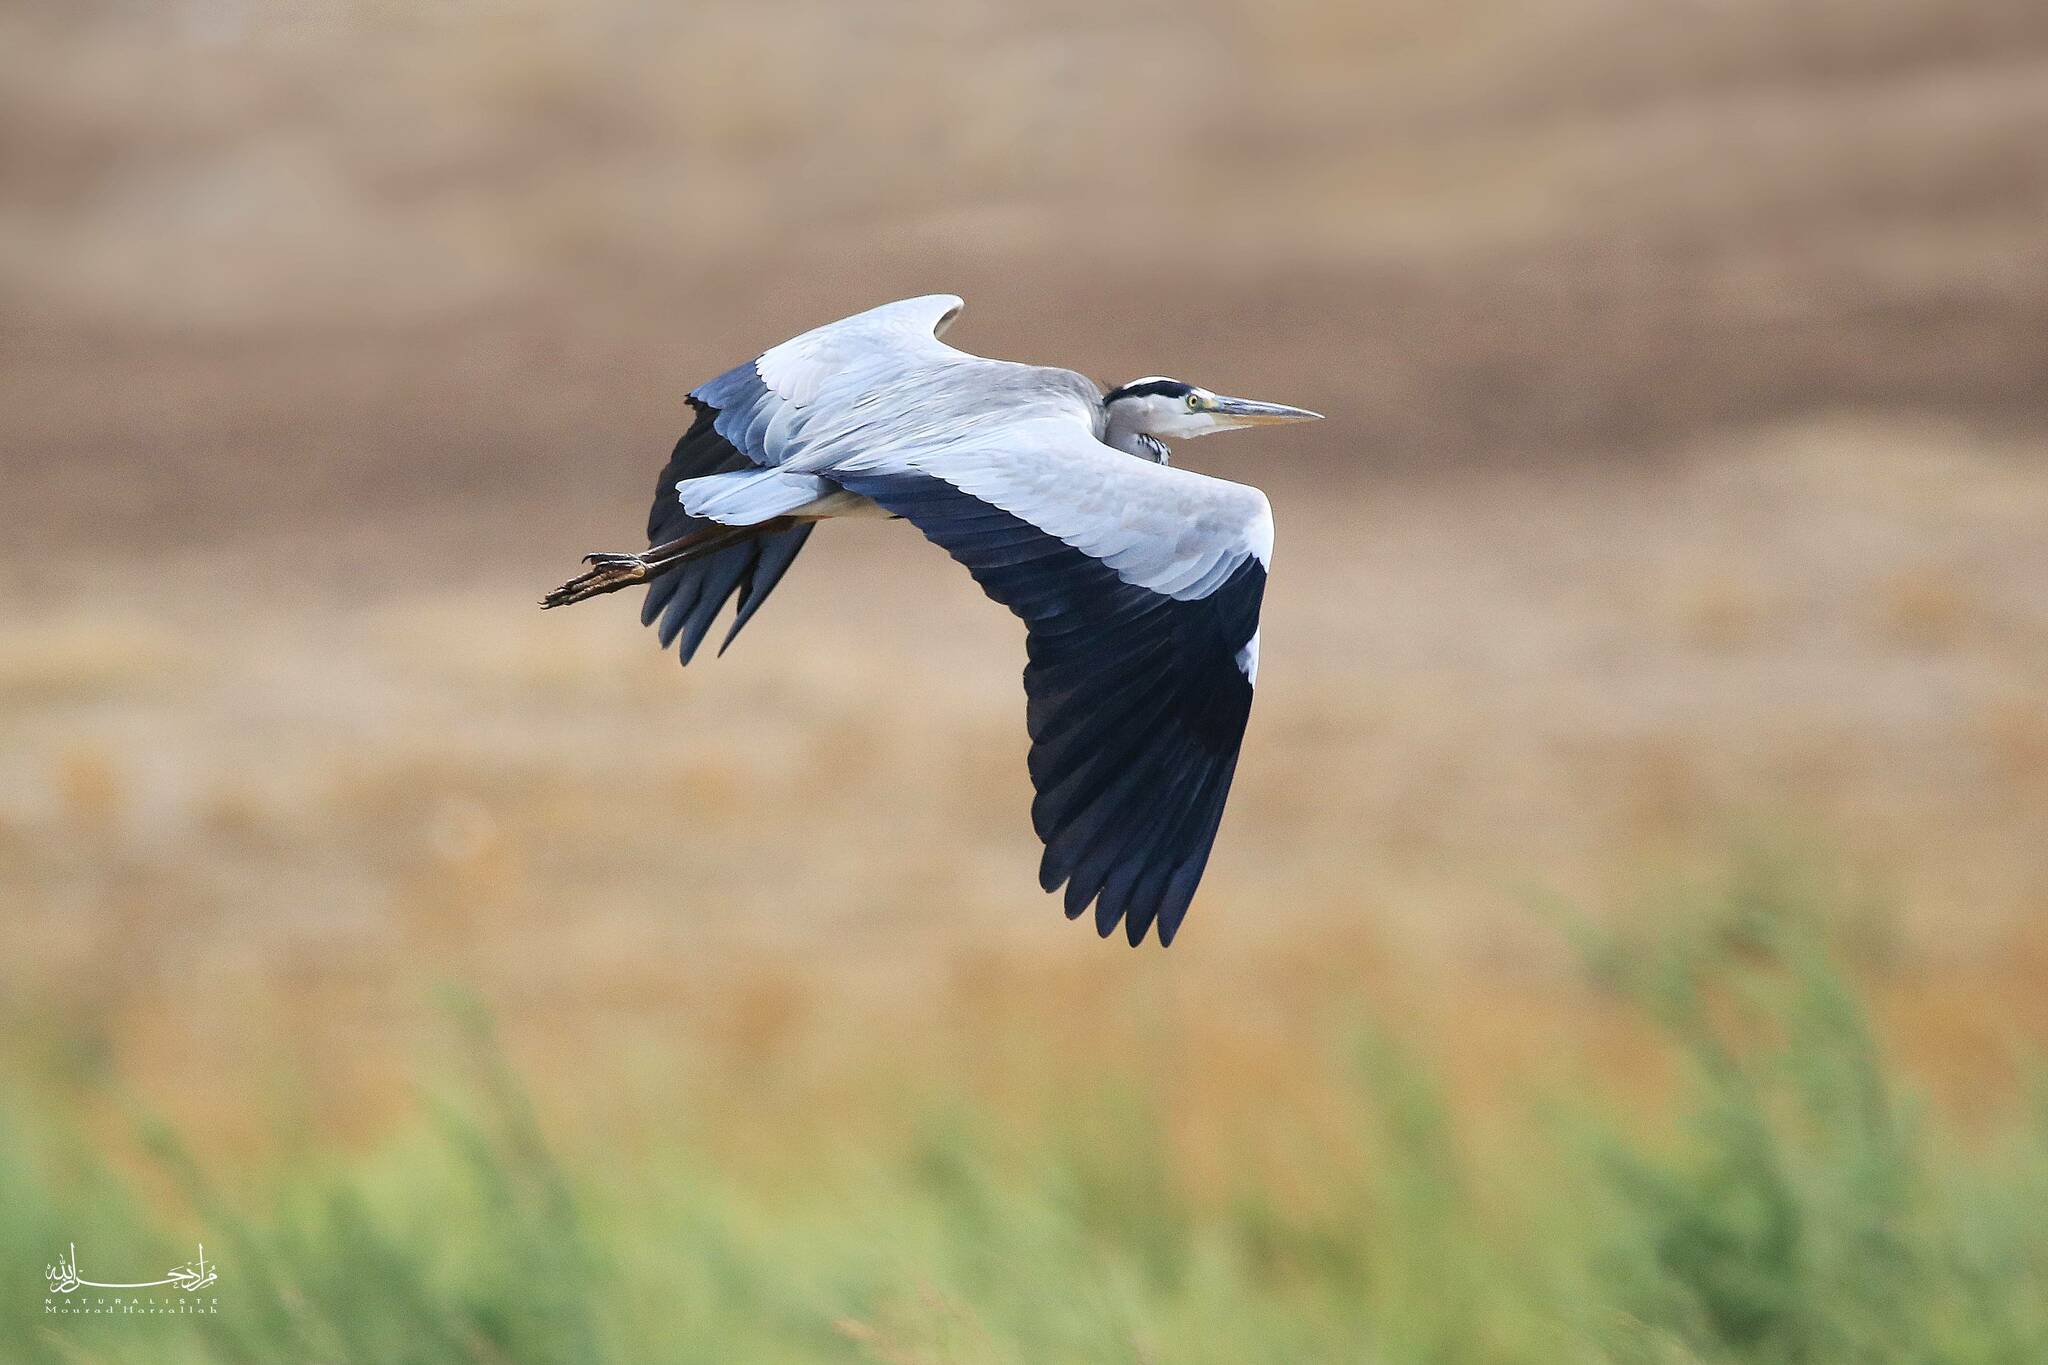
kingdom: Animalia
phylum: Chordata
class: Aves
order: Pelecaniformes
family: Ardeidae
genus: Ardea
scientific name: Ardea cinerea
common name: Grey heron
